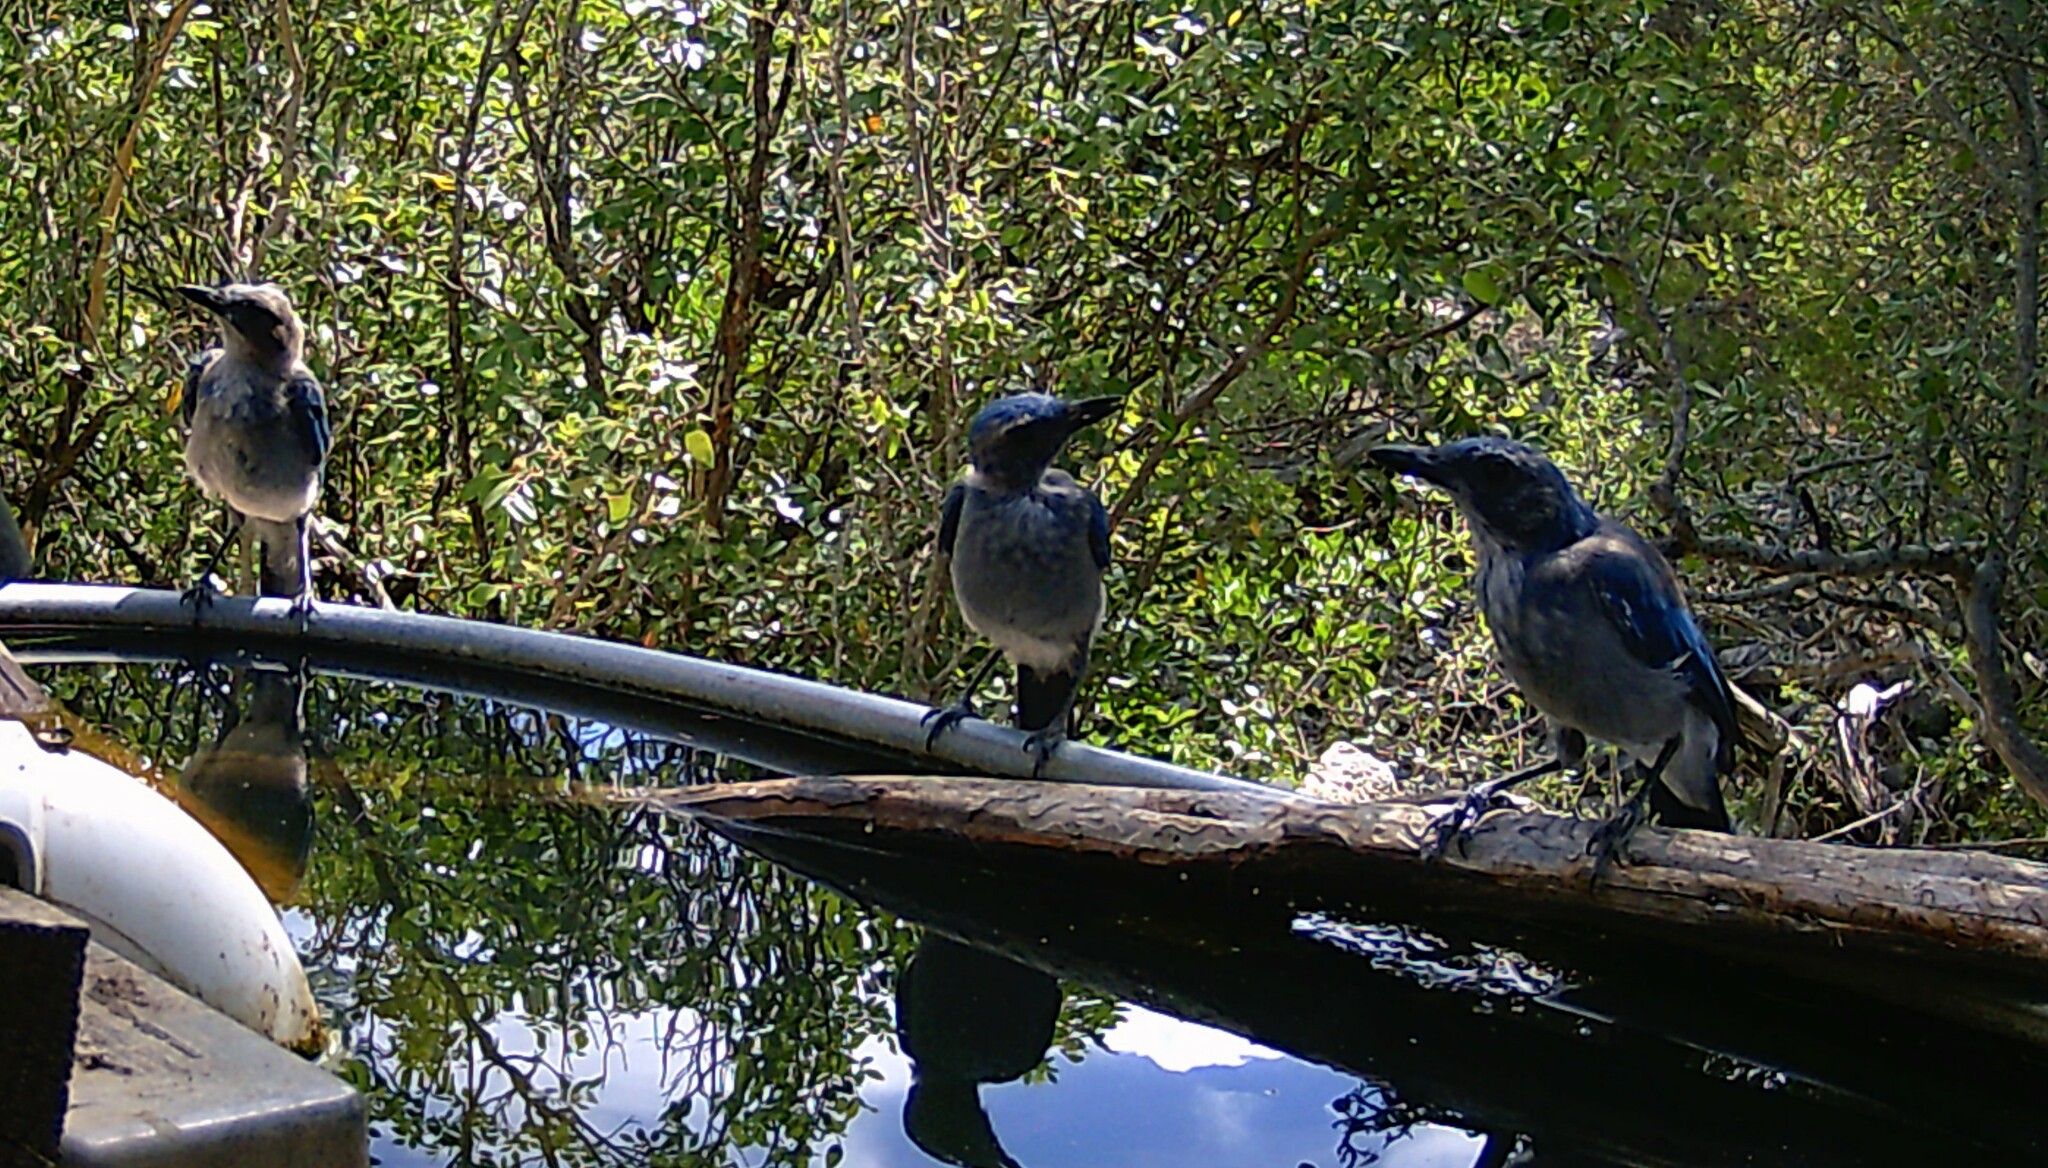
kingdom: Animalia
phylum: Chordata
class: Aves
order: Passeriformes
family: Corvidae
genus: Aphelocoma
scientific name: Aphelocoma woodhouseii
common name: Woodhouse's scrub-jay
